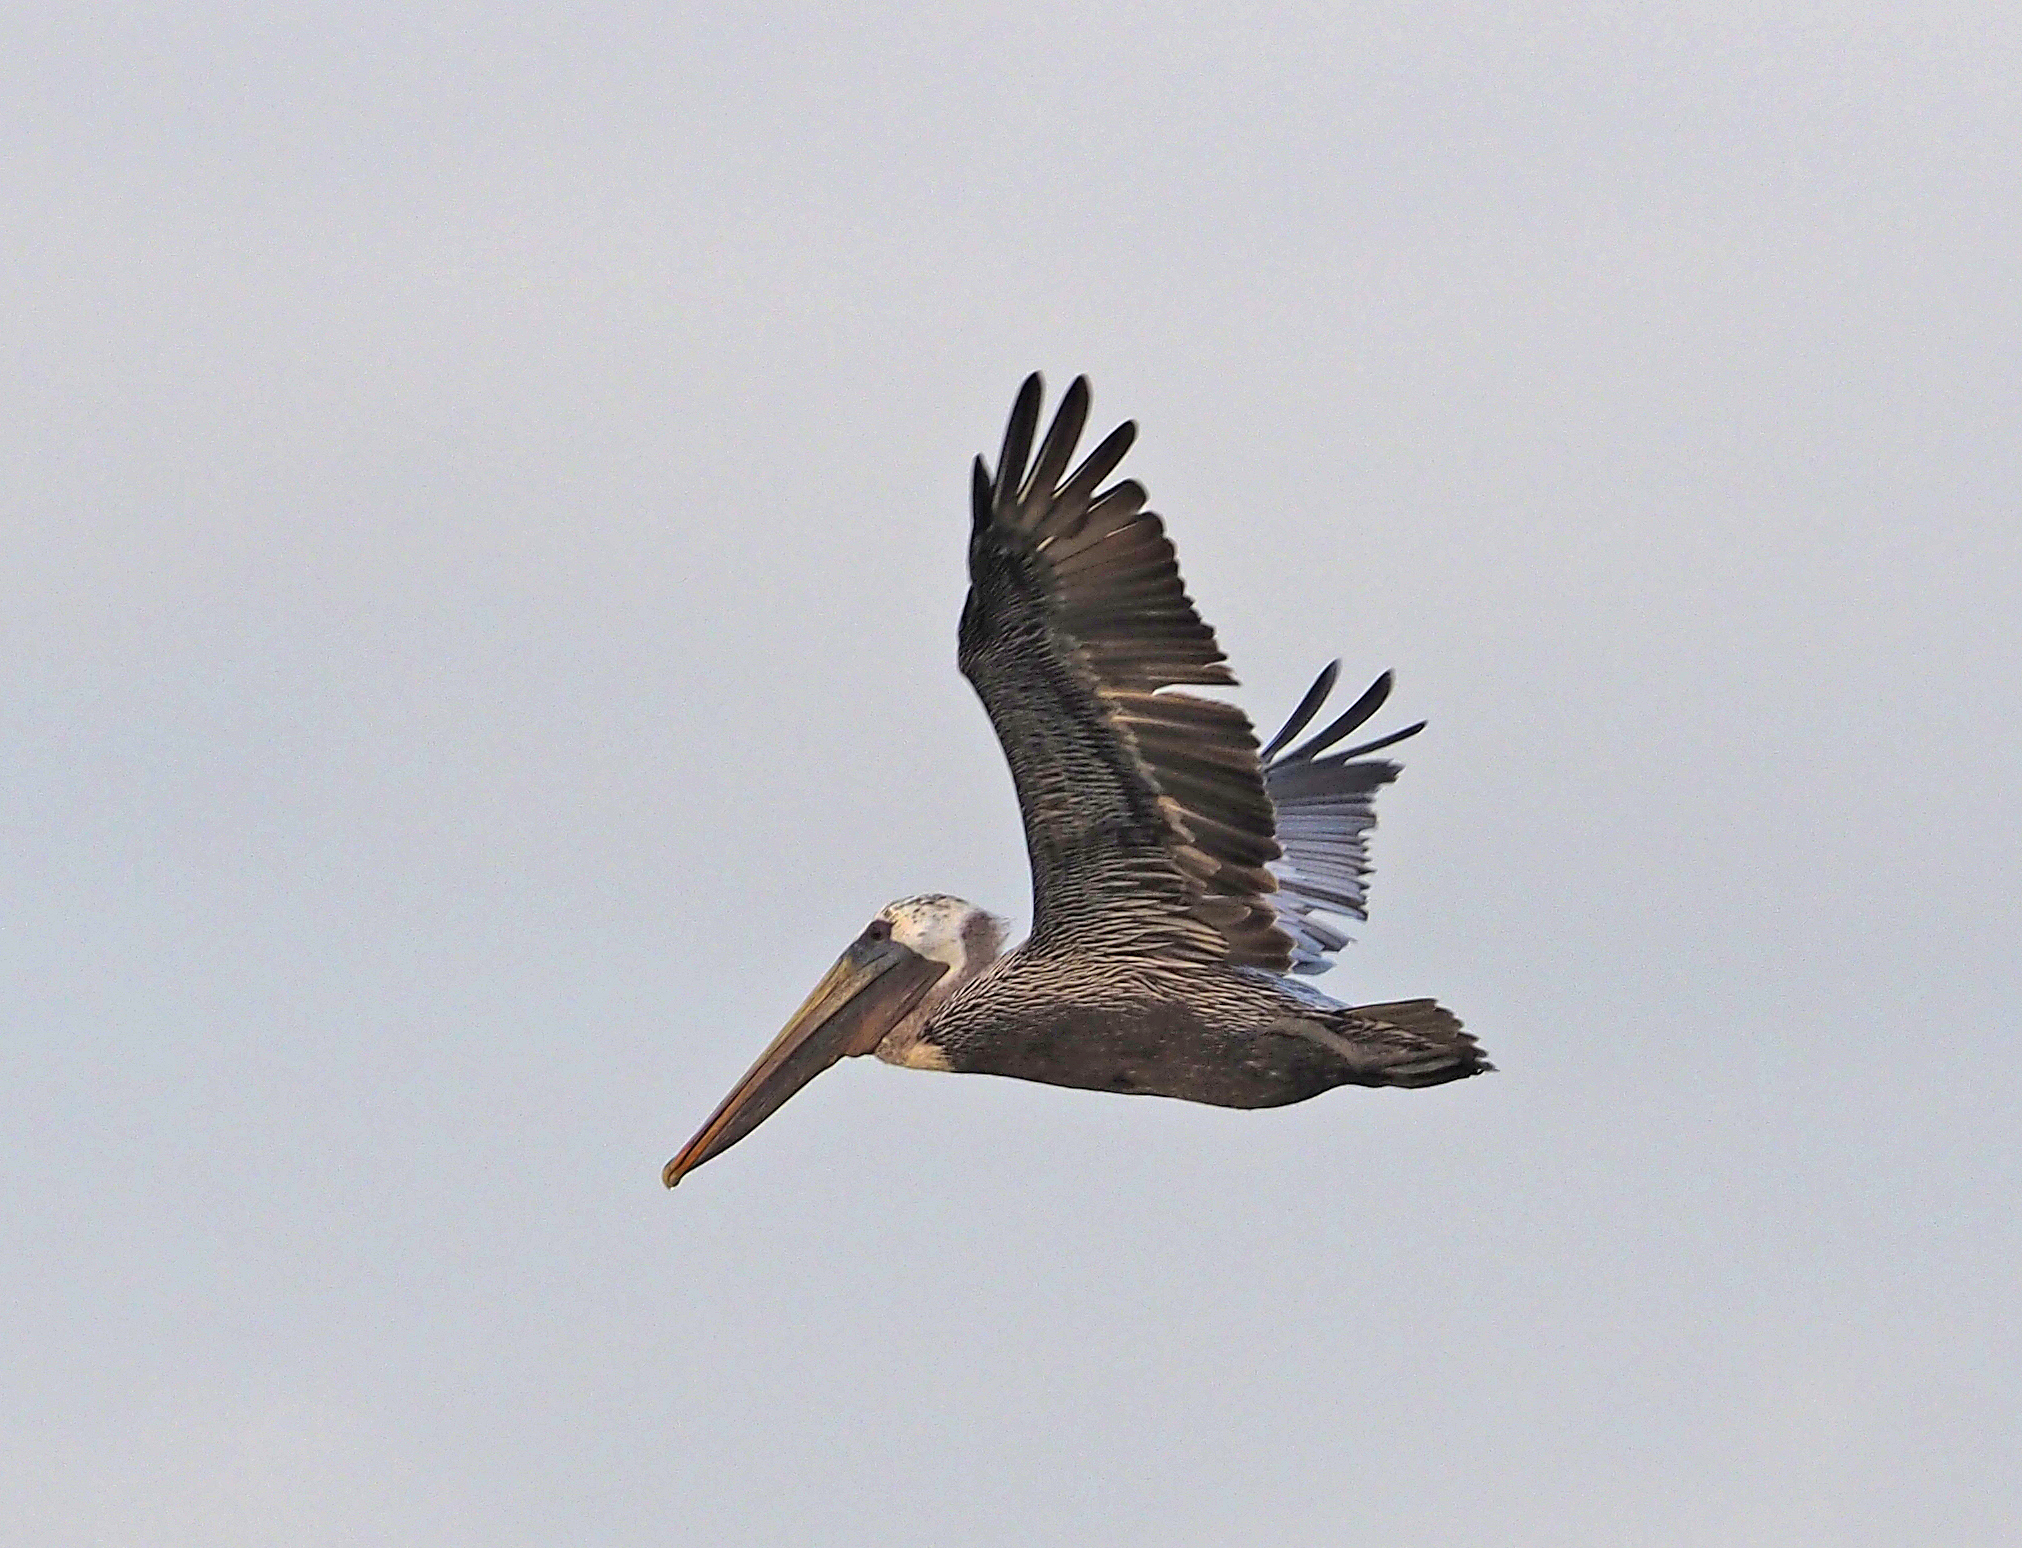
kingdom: Animalia
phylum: Chordata
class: Aves
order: Pelecaniformes
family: Pelecanidae
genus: Pelecanus
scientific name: Pelecanus occidentalis
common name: Brown pelican
